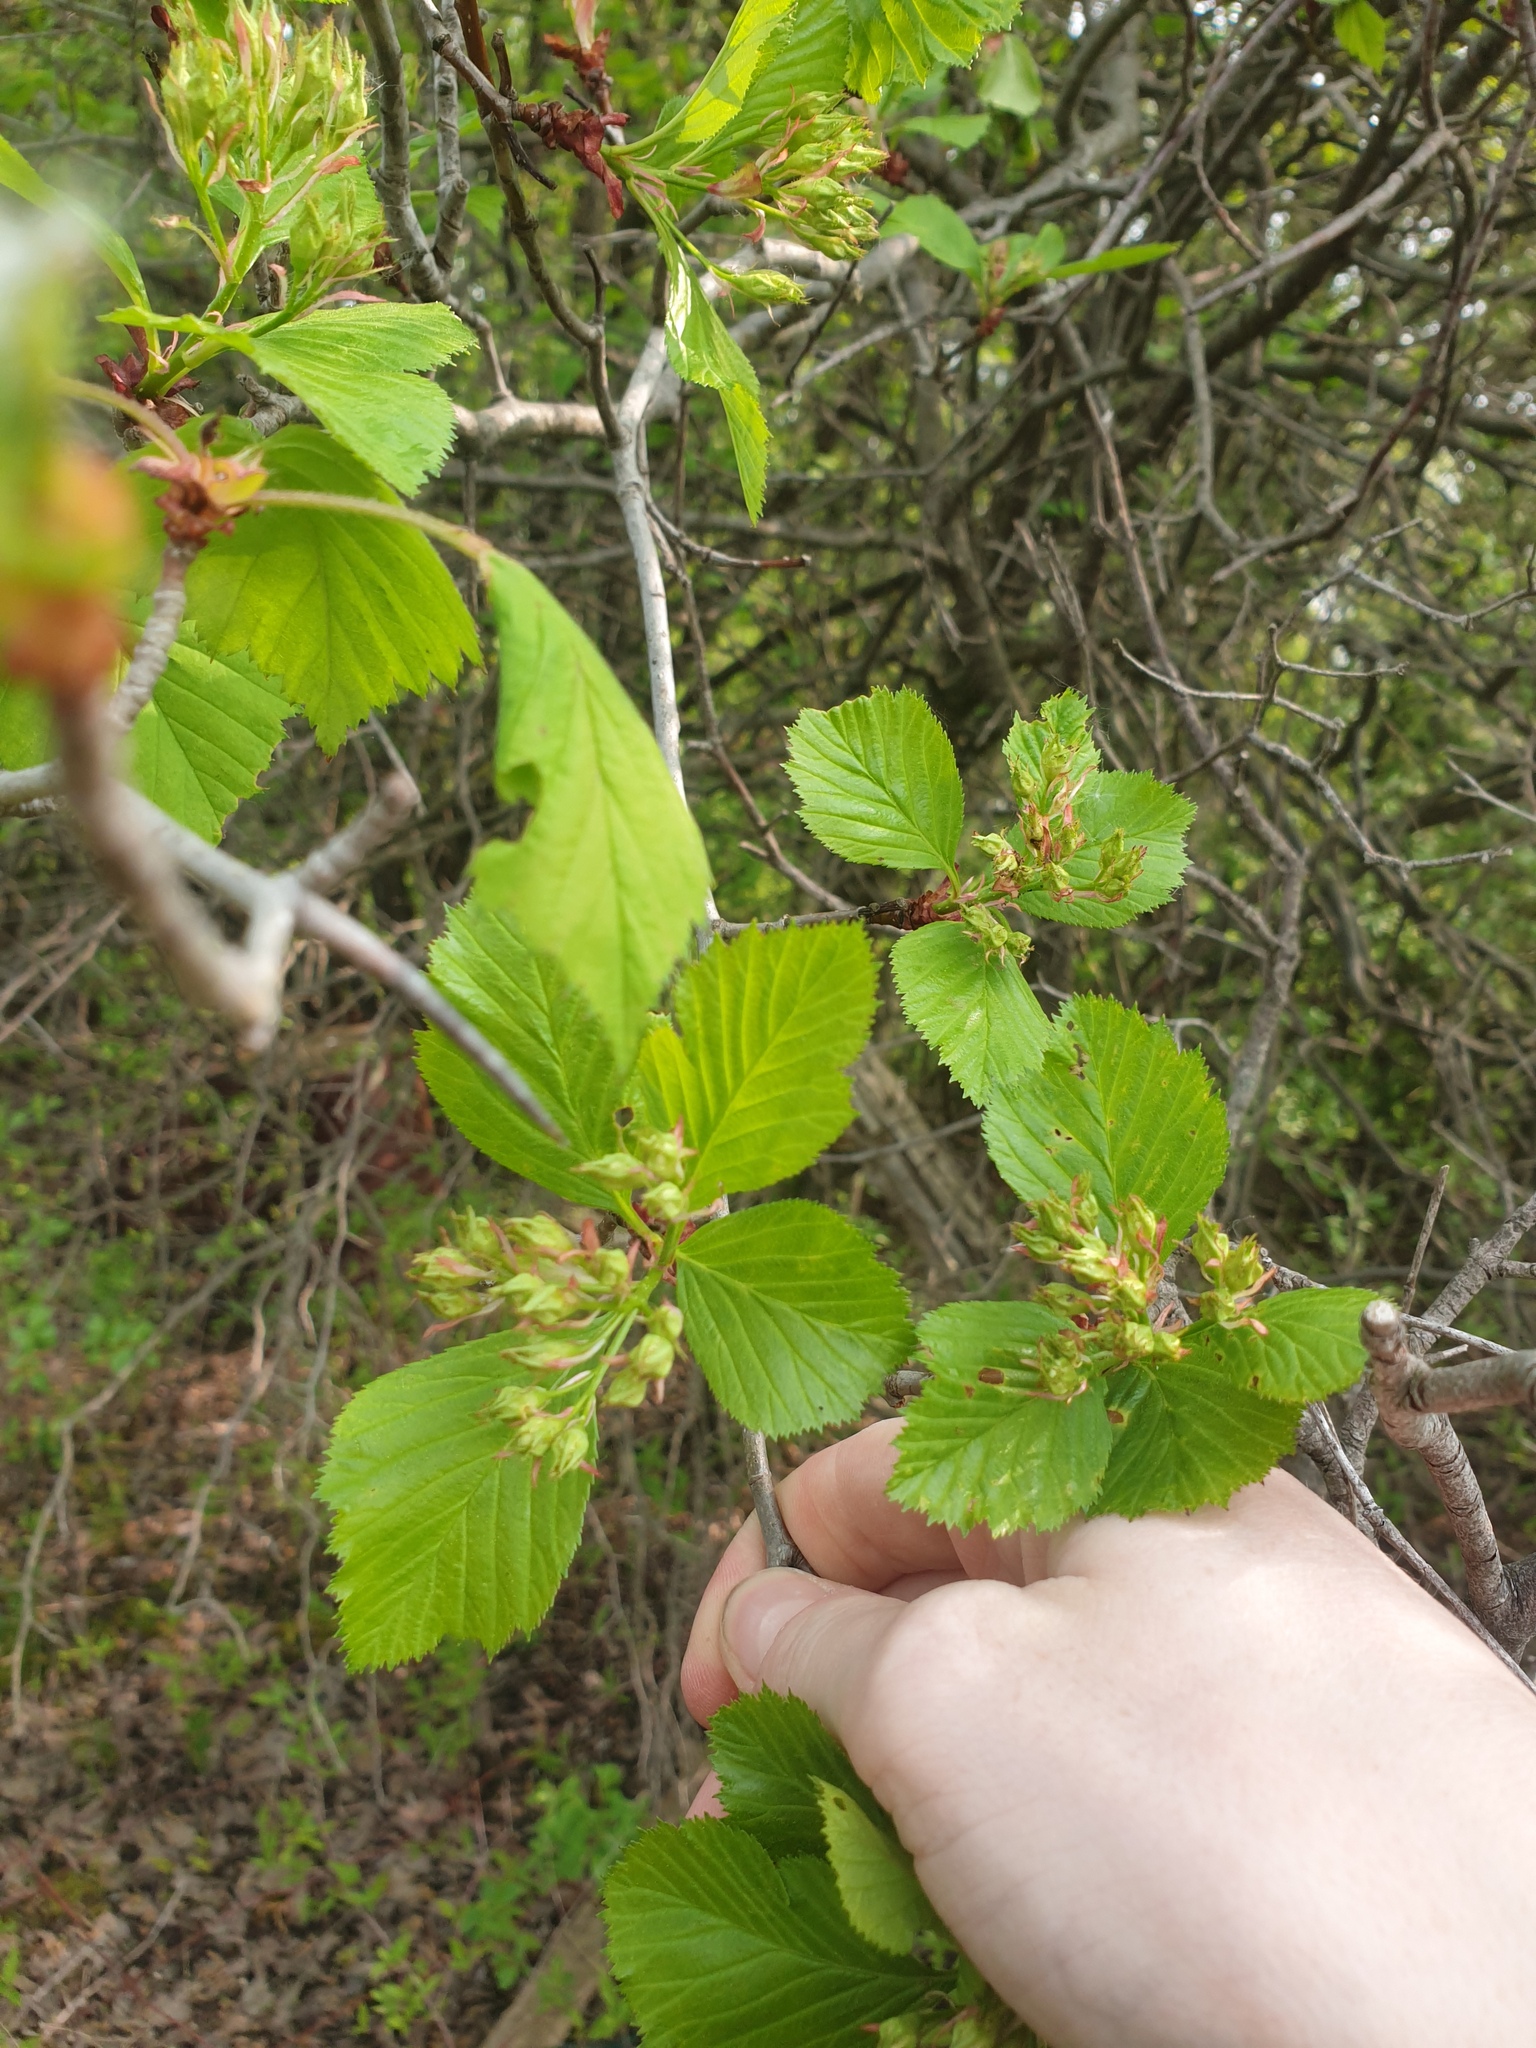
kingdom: Plantae
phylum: Tracheophyta
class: Magnoliopsida
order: Rosales
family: Rosaceae
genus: Crataegus
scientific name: Crataegus succulenta
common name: Fleshy hawthorn
